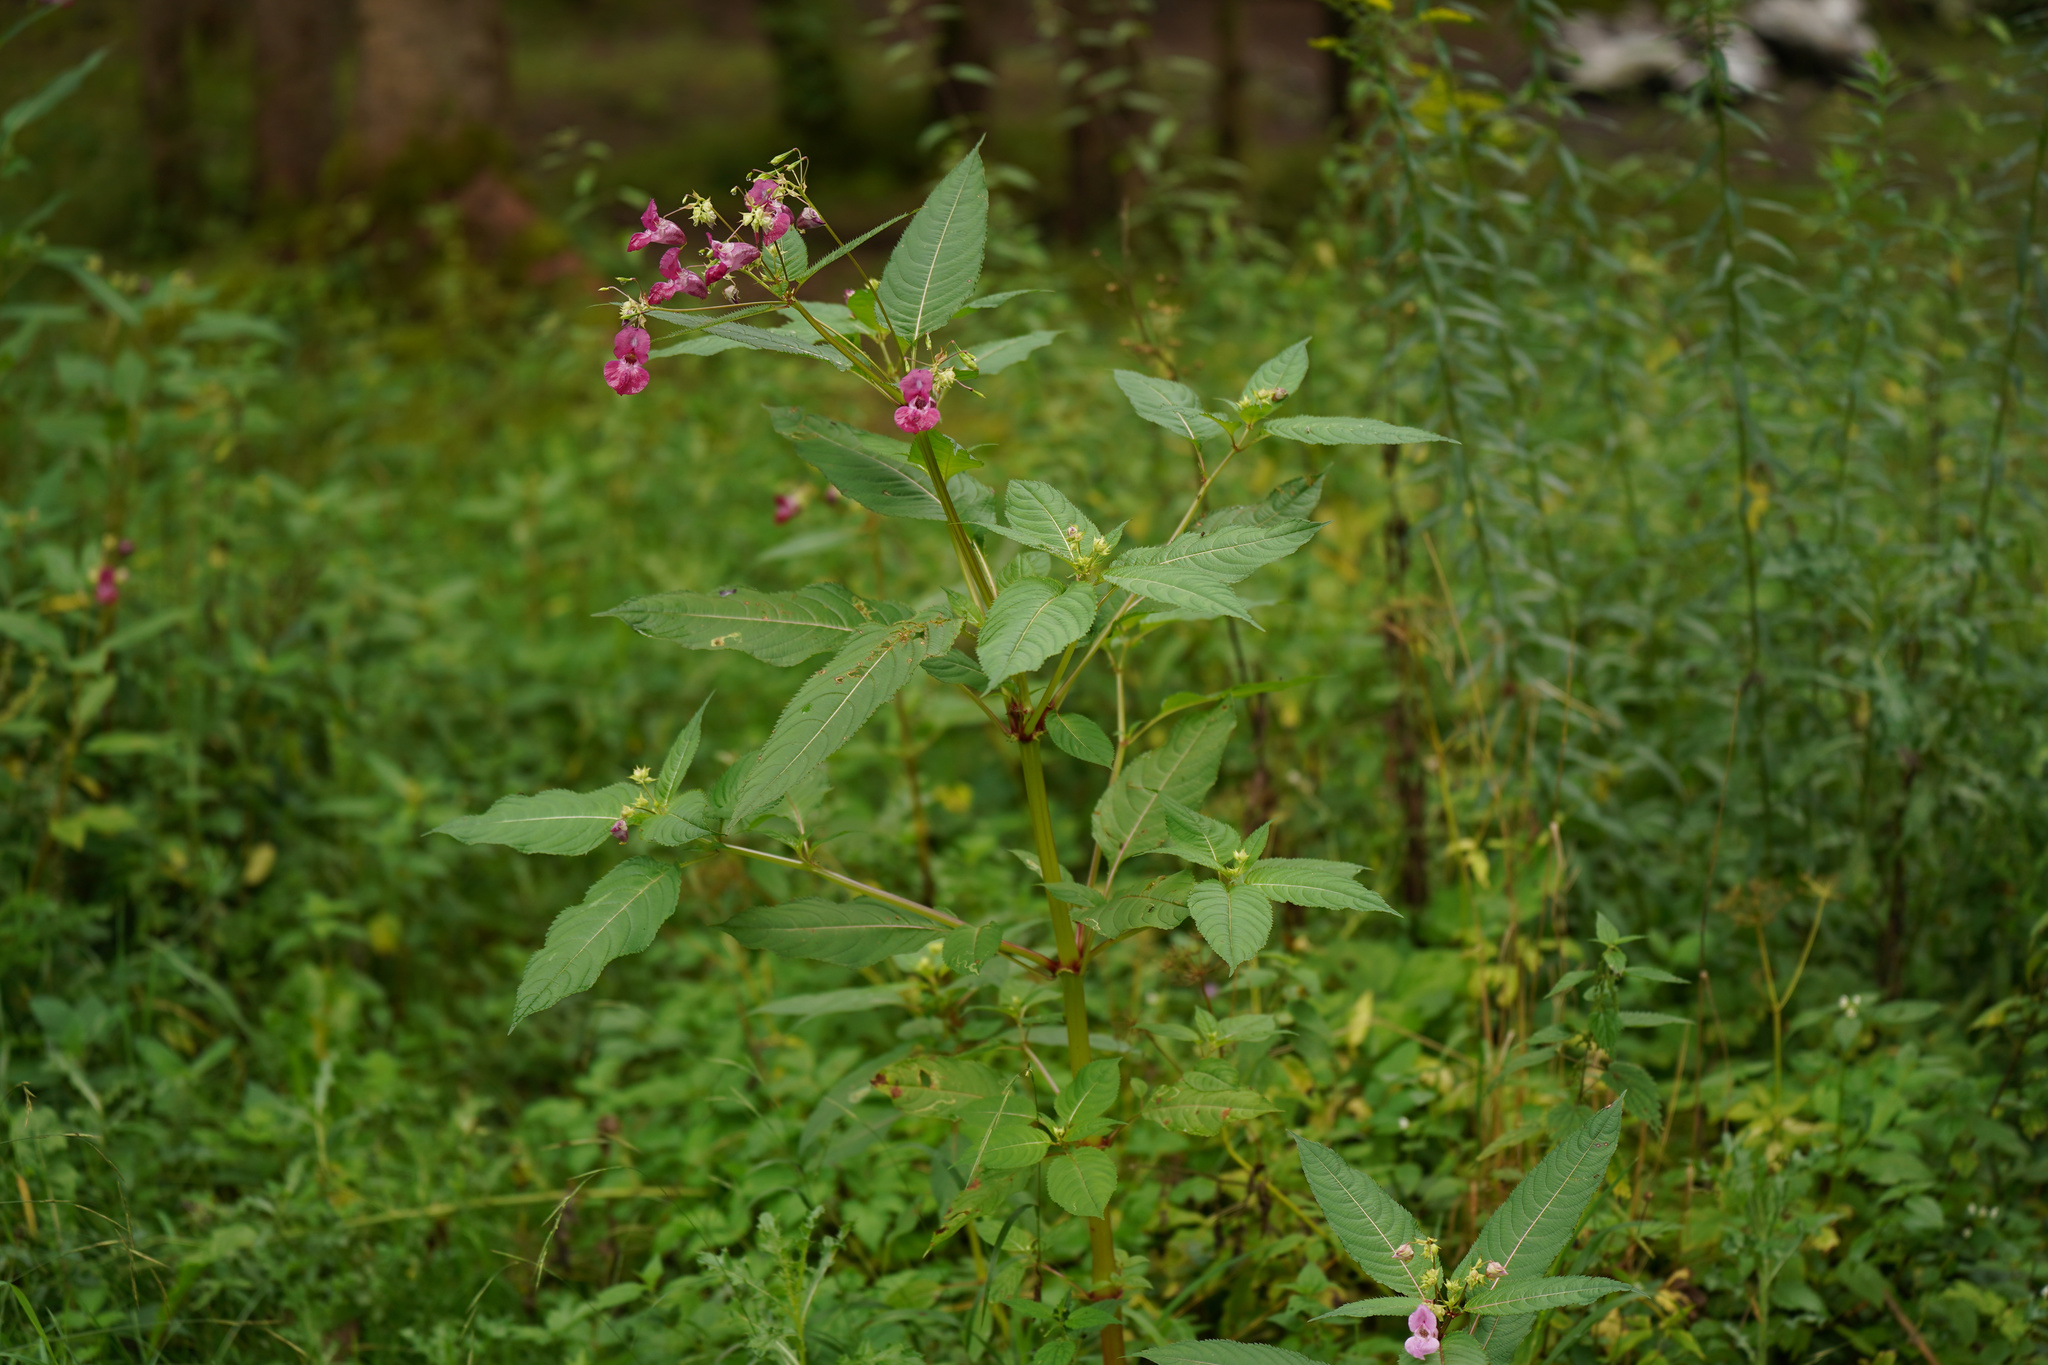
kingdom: Plantae
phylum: Tracheophyta
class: Magnoliopsida
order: Ericales
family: Balsaminaceae
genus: Impatiens
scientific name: Impatiens glandulifera
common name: Himalayan balsam
